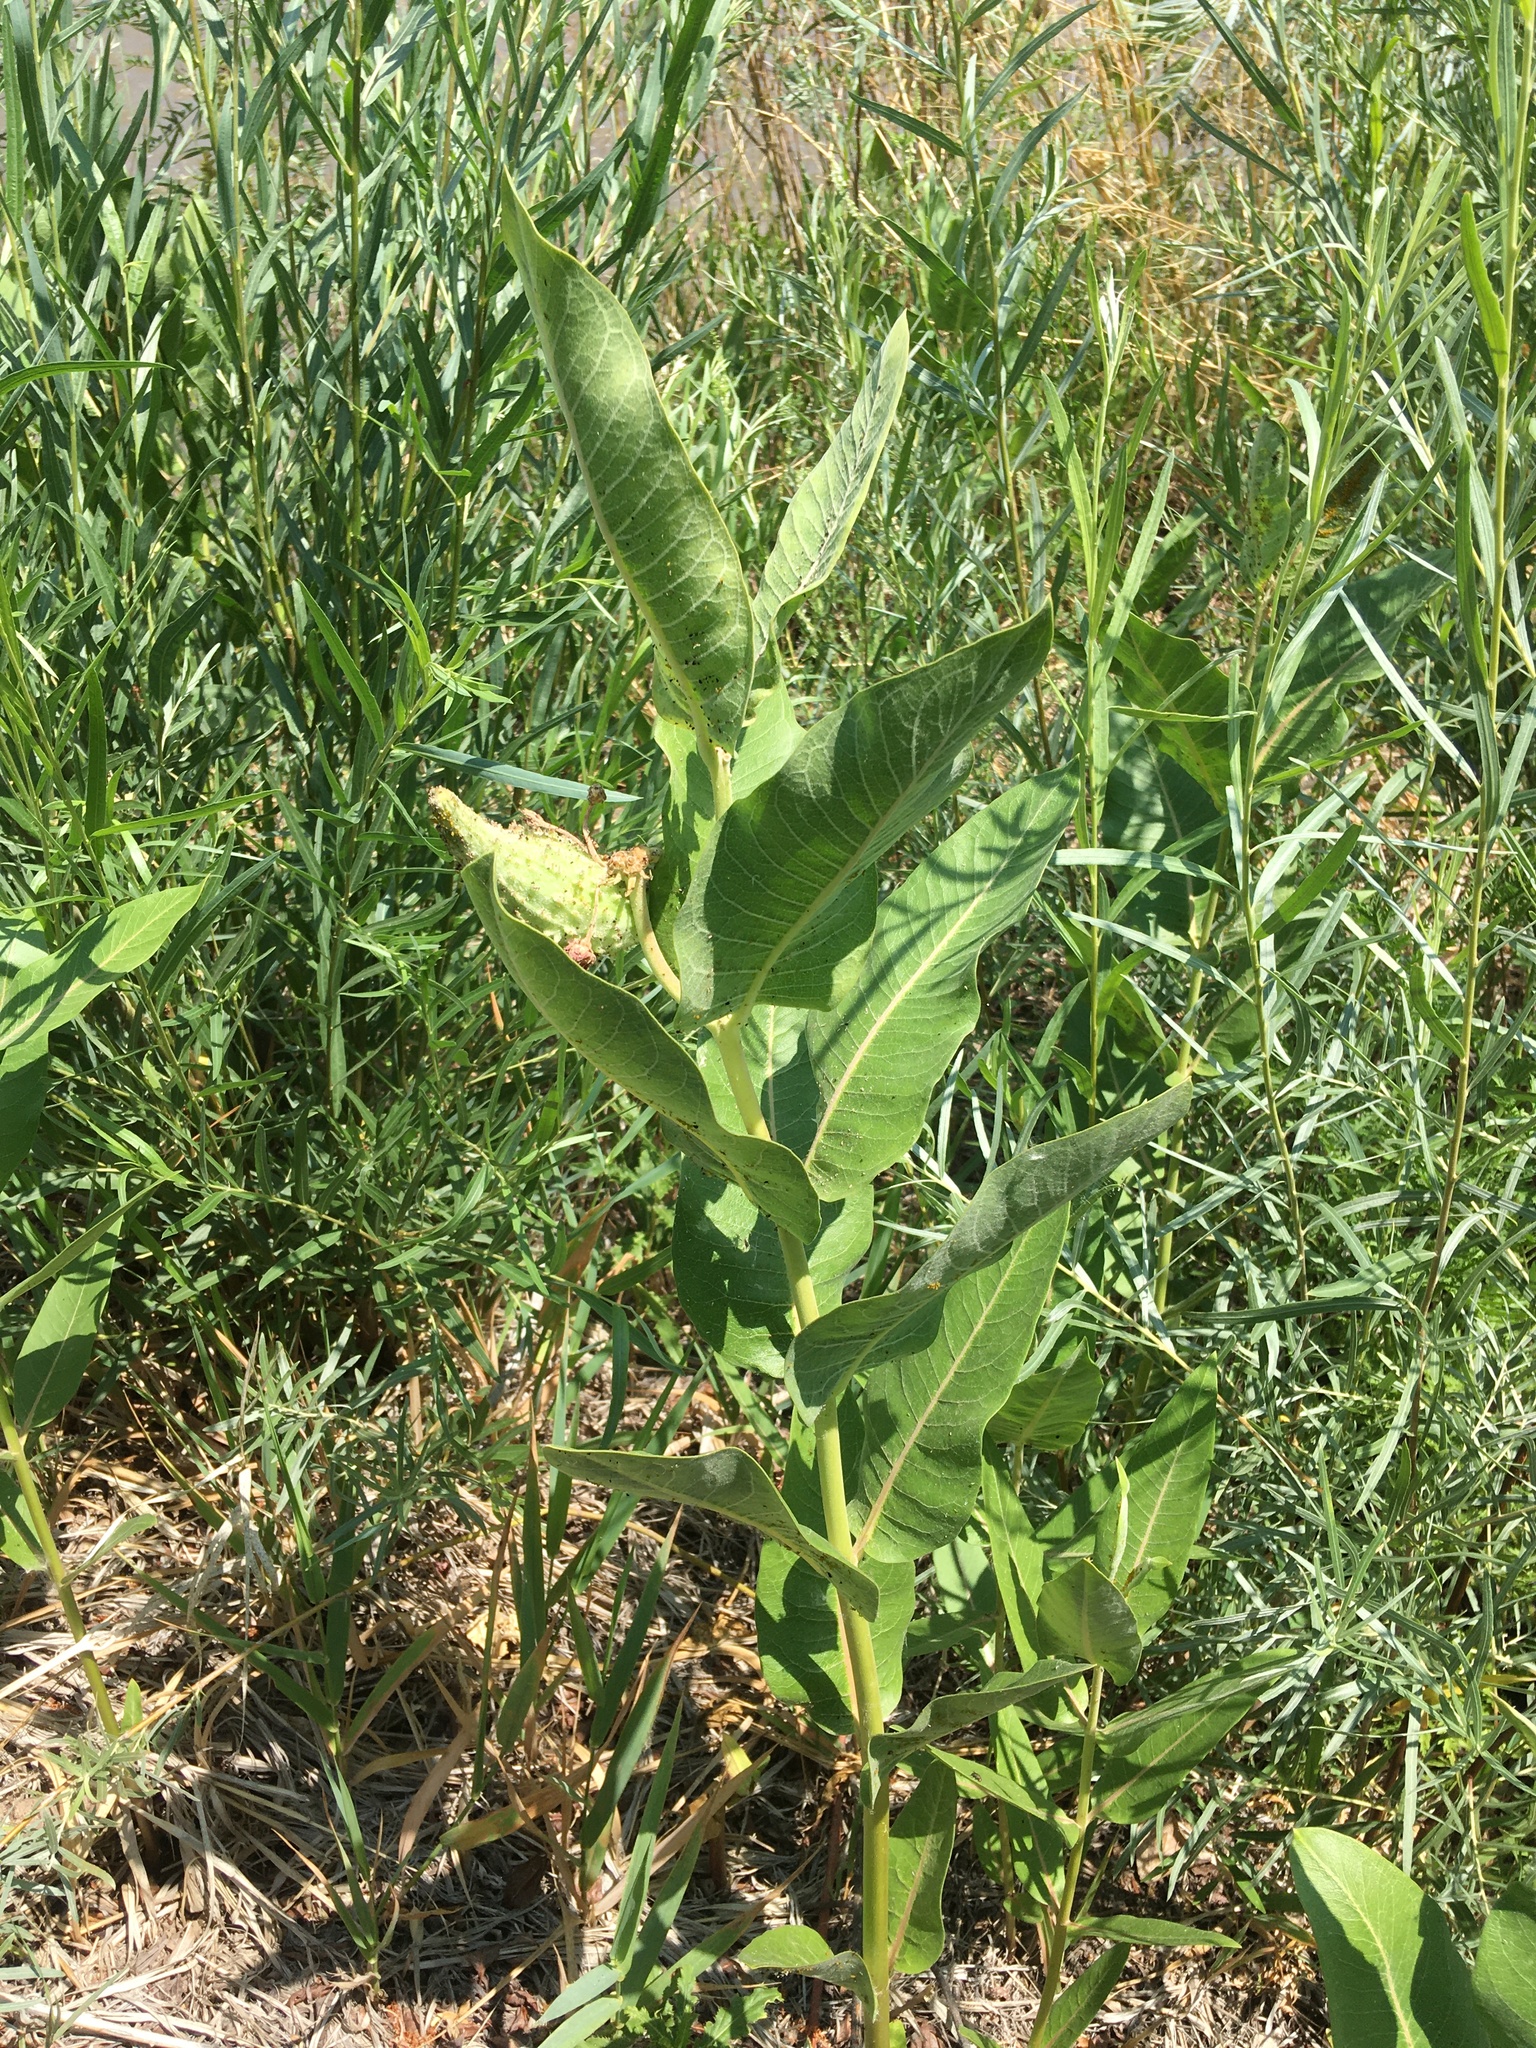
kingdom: Plantae
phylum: Tracheophyta
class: Magnoliopsida
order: Gentianales
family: Apocynaceae
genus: Asclepias
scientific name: Asclepias speciosa
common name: Showy milkweed
